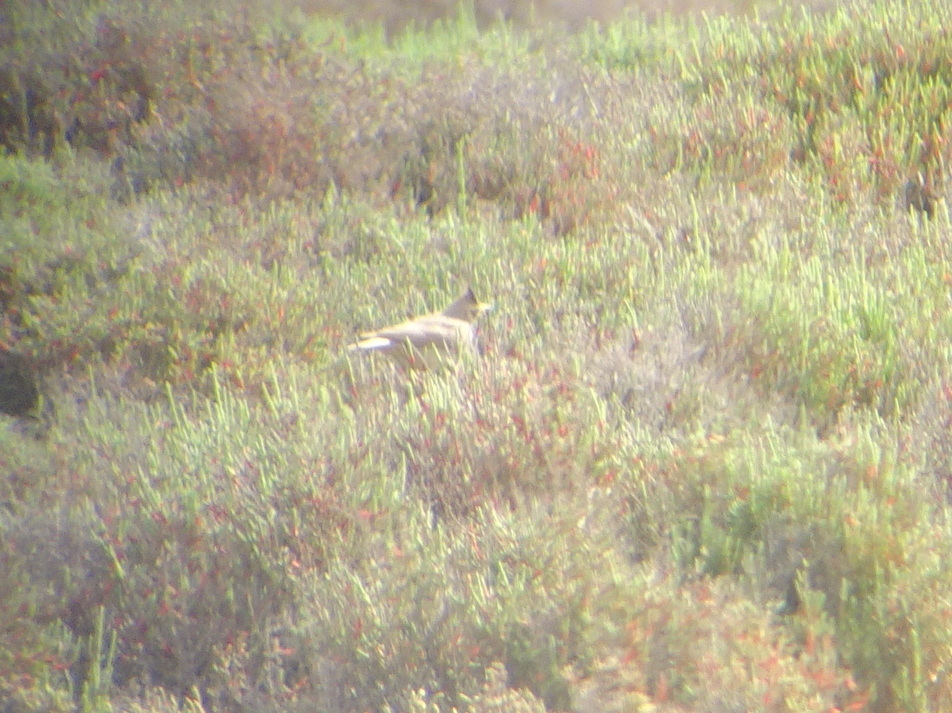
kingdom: Animalia
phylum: Chordata
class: Aves
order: Passeriformes
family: Alaudidae
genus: Galerida
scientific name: Galerida cristata
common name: Crested lark
